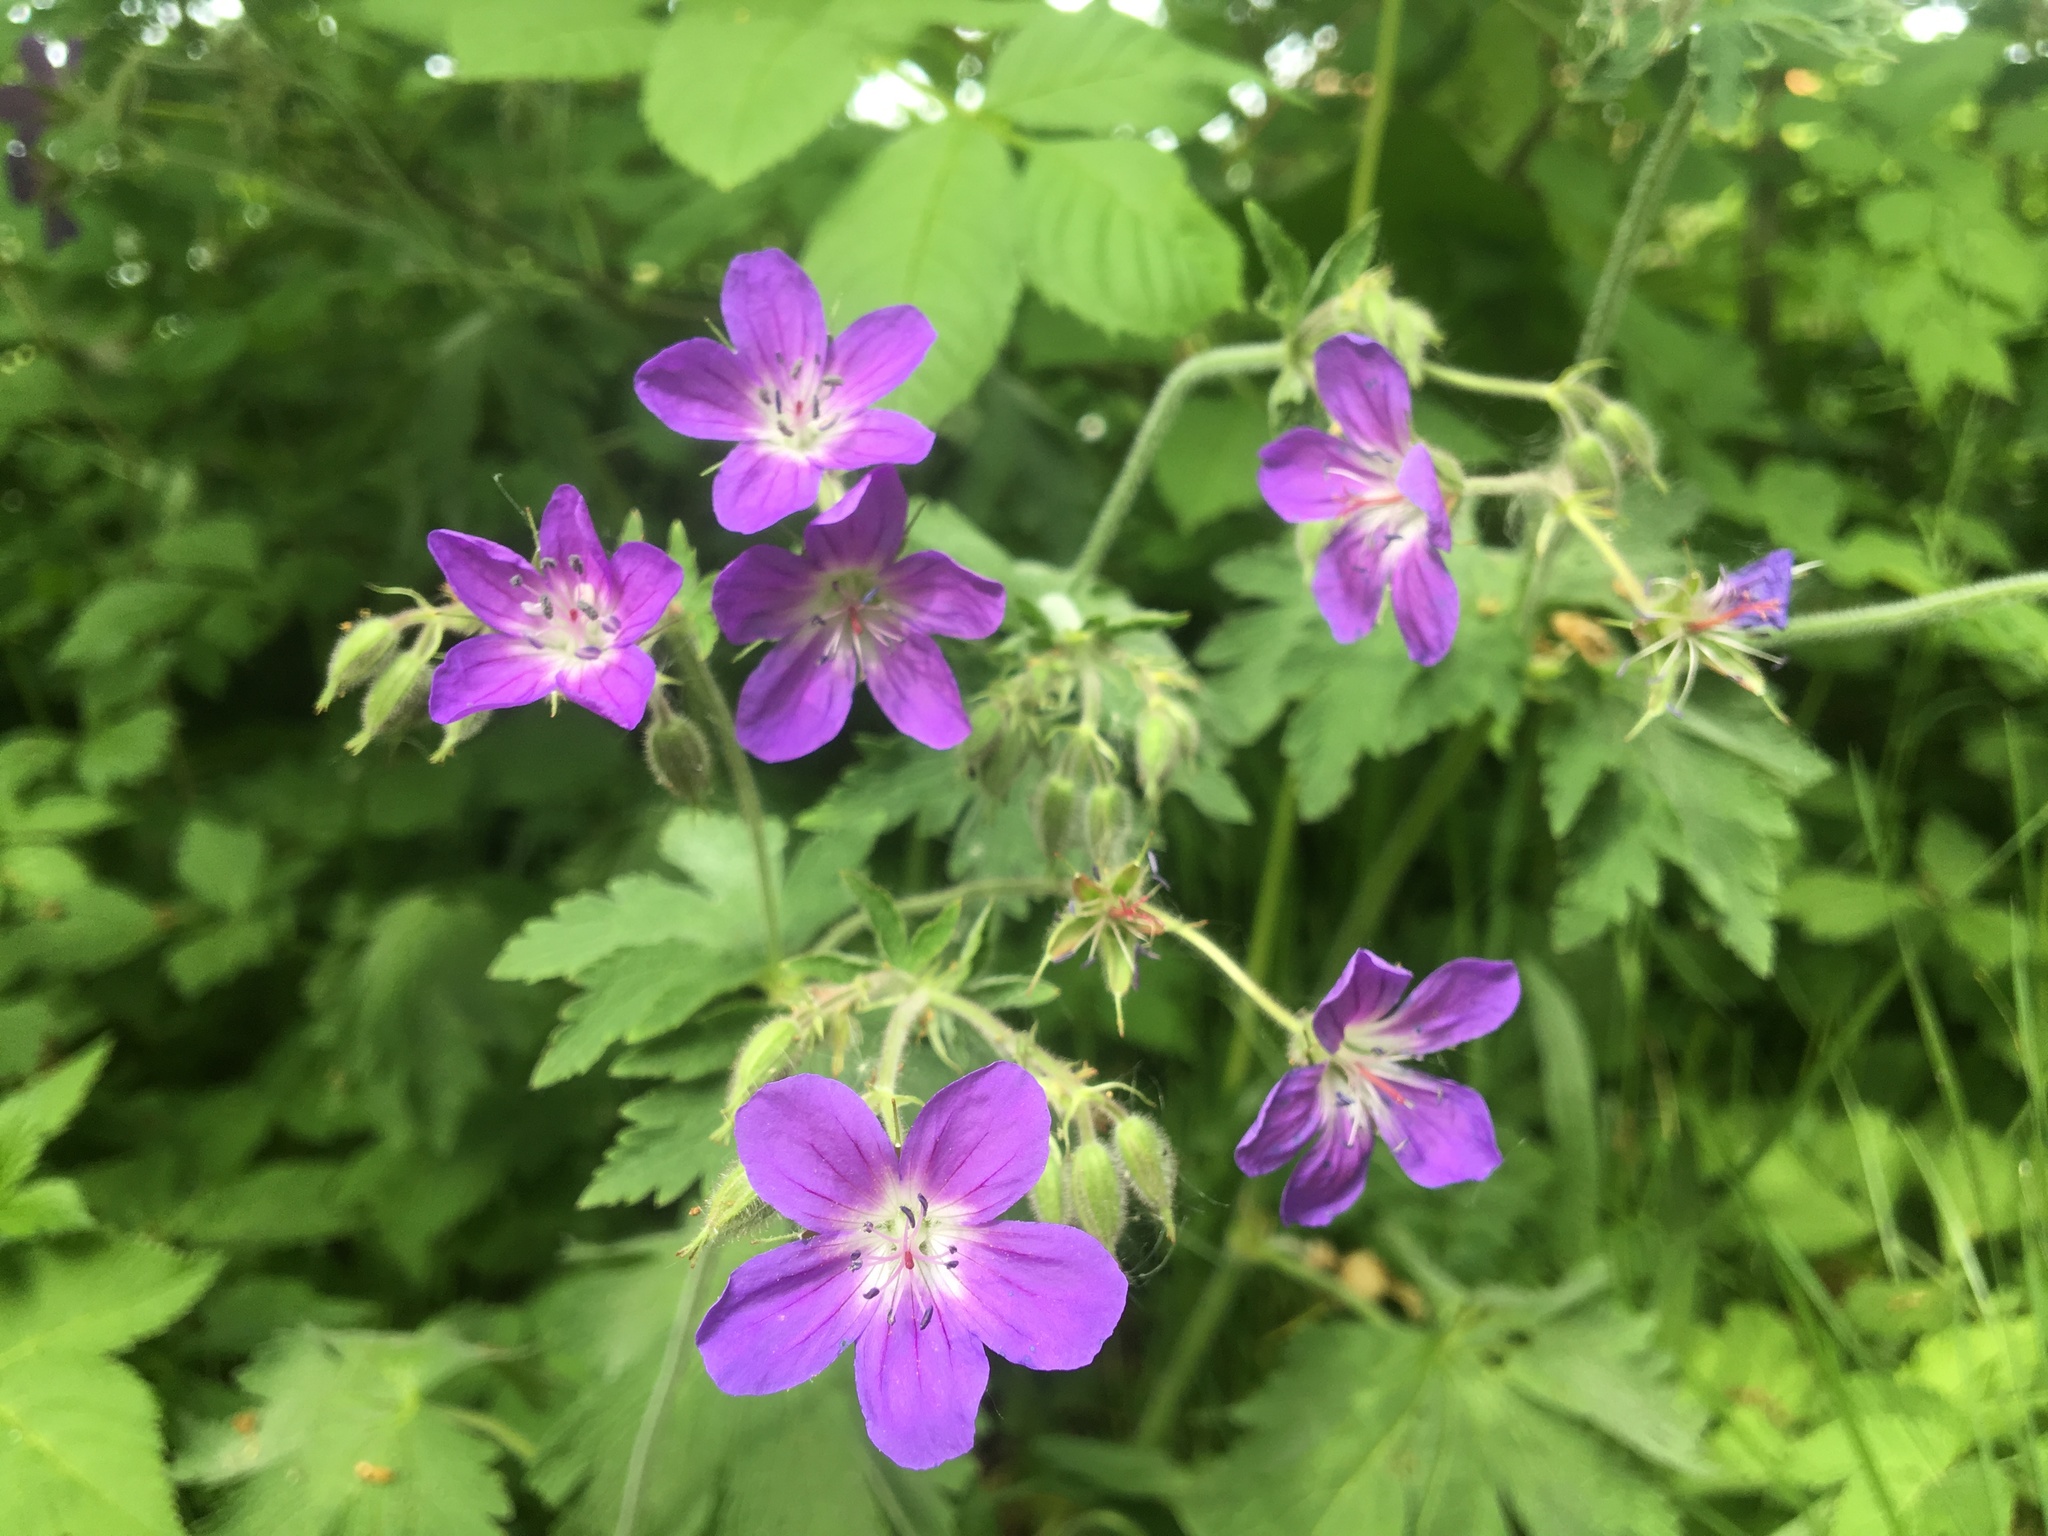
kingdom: Plantae
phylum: Tracheophyta
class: Magnoliopsida
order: Geraniales
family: Geraniaceae
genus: Geranium
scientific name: Geranium sylvaticum
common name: Wood crane's-bill
